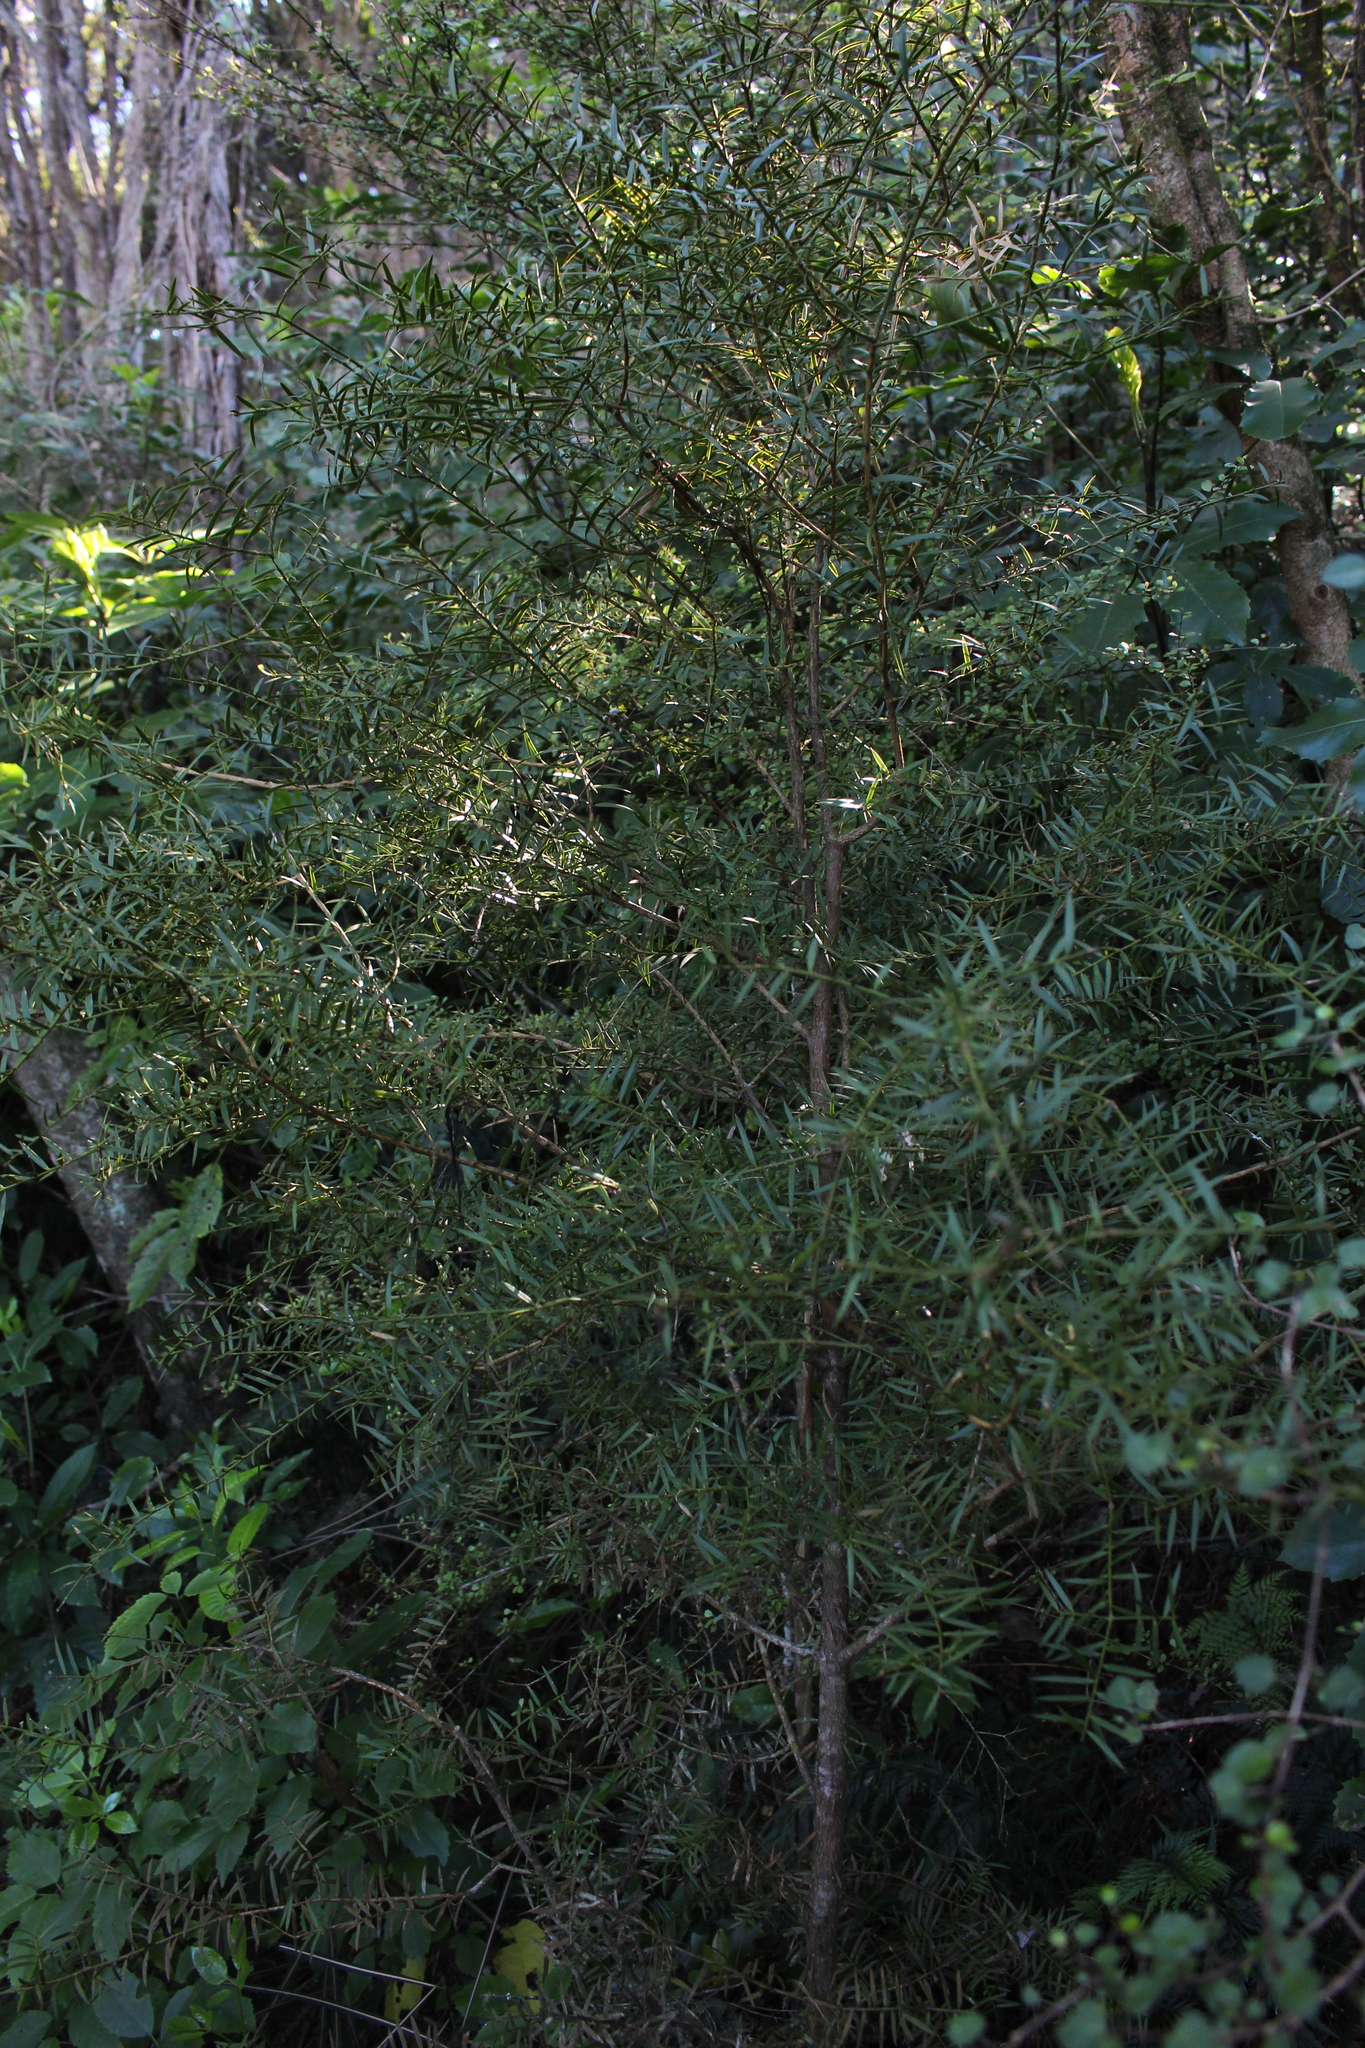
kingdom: Plantae
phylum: Tracheophyta
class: Pinopsida
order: Pinales
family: Podocarpaceae
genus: Podocarpus
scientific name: Podocarpus totara
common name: Totara
